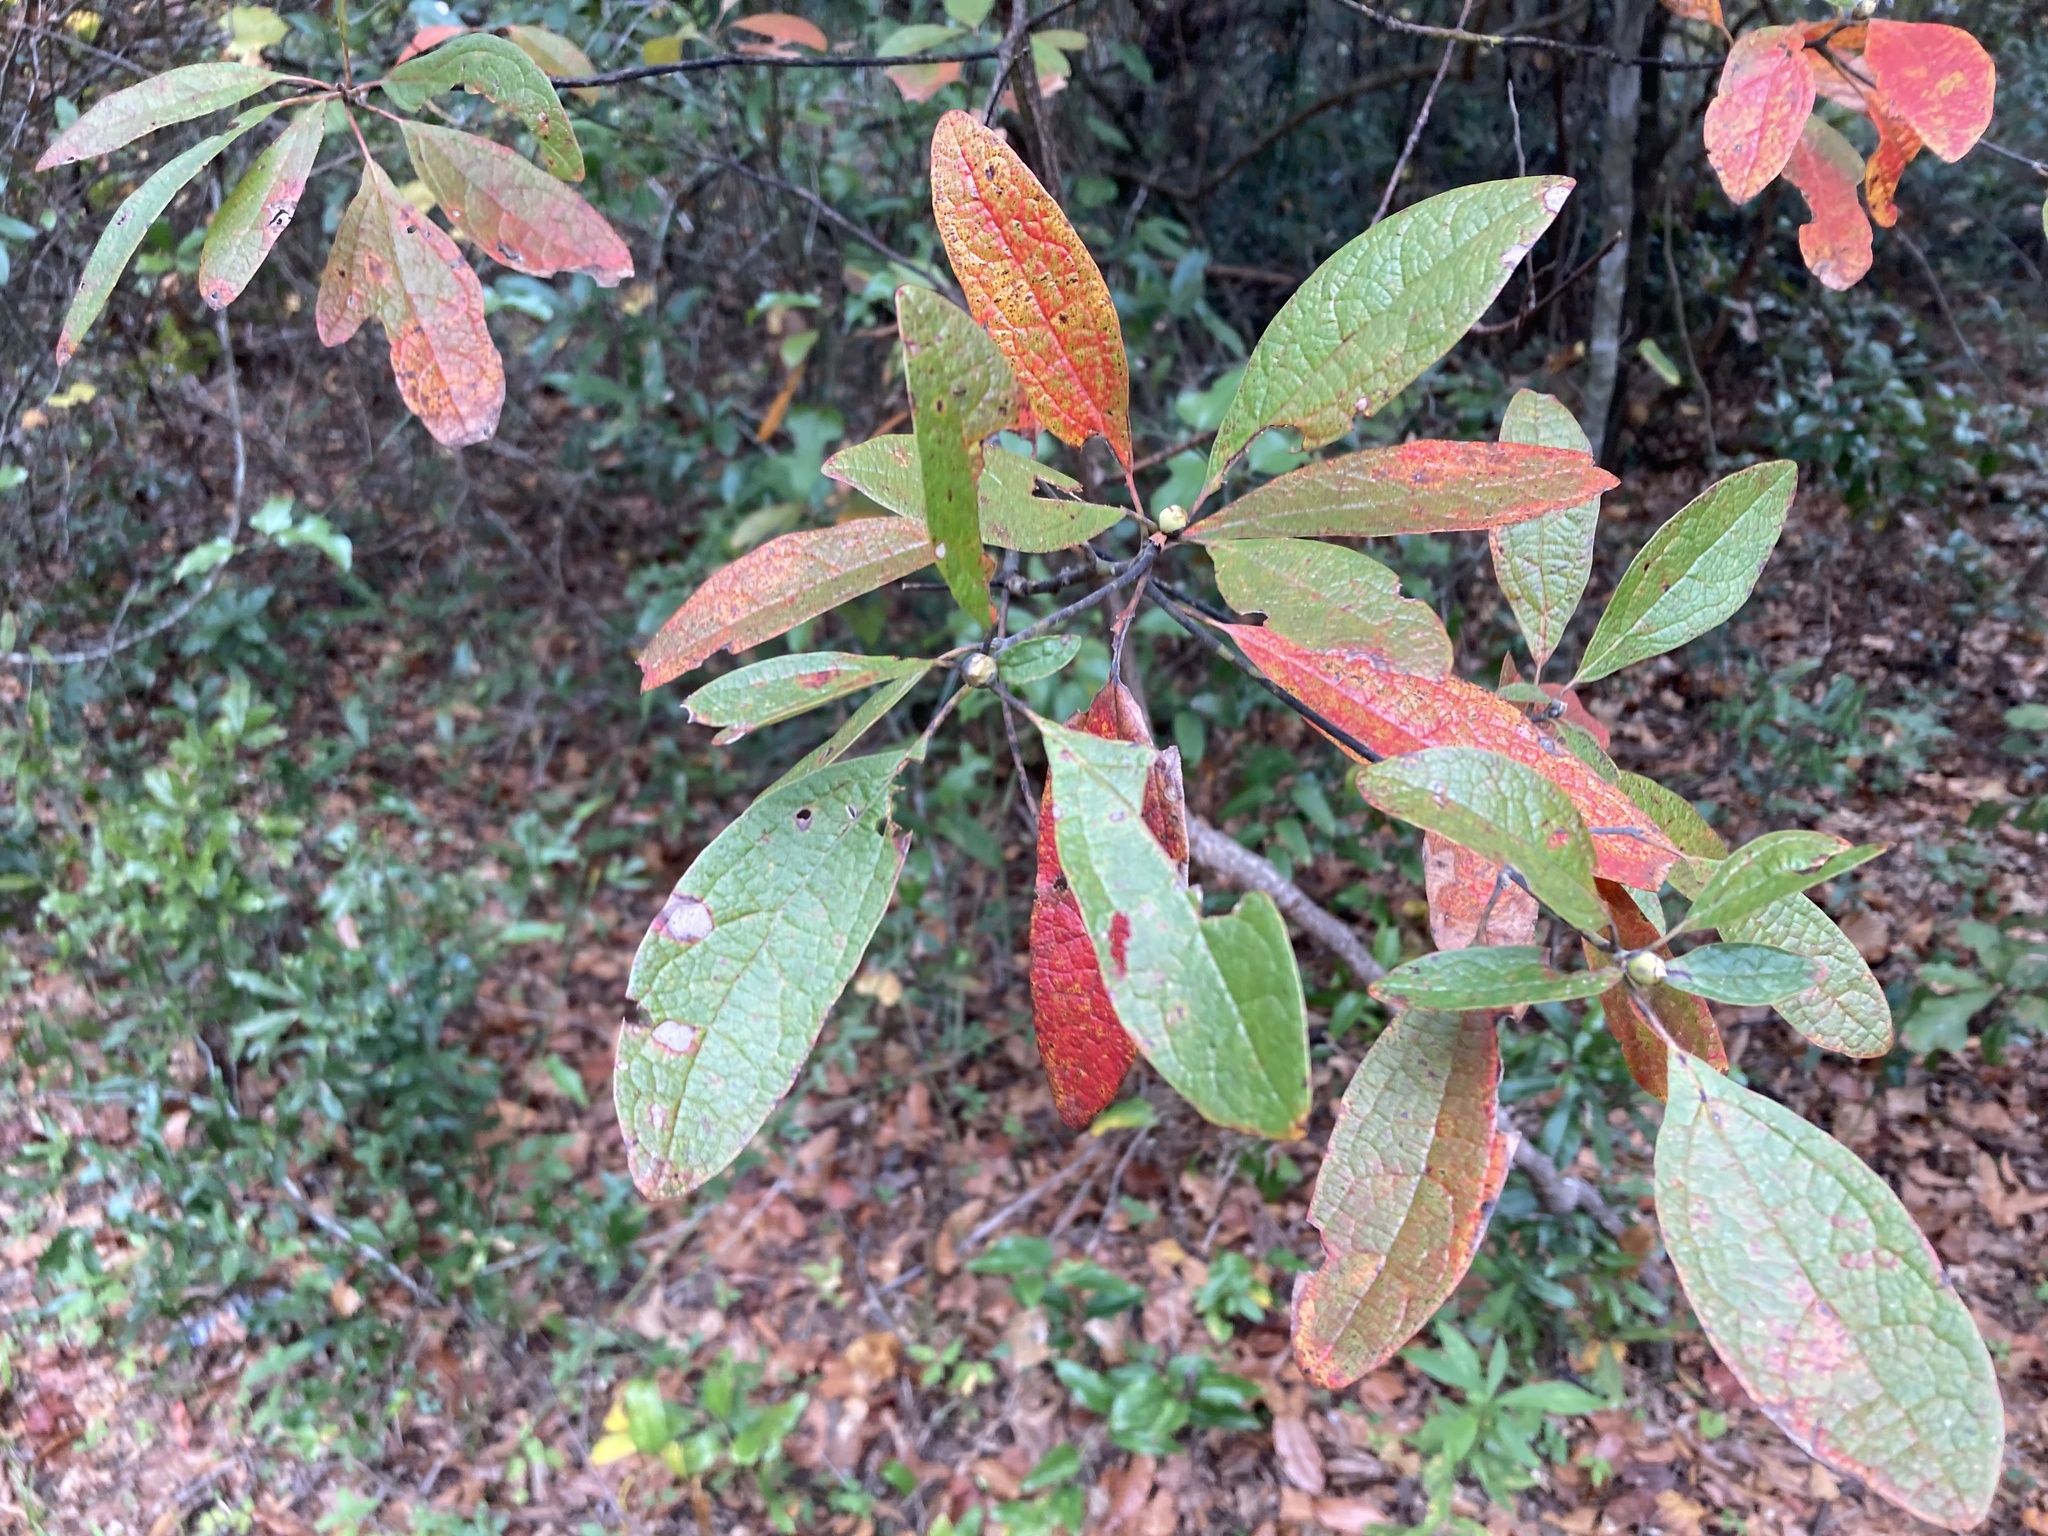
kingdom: Plantae
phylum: Tracheophyta
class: Magnoliopsida
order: Laurales
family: Lauraceae
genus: Sassafras
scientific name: Sassafras albidum
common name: Sassafras
